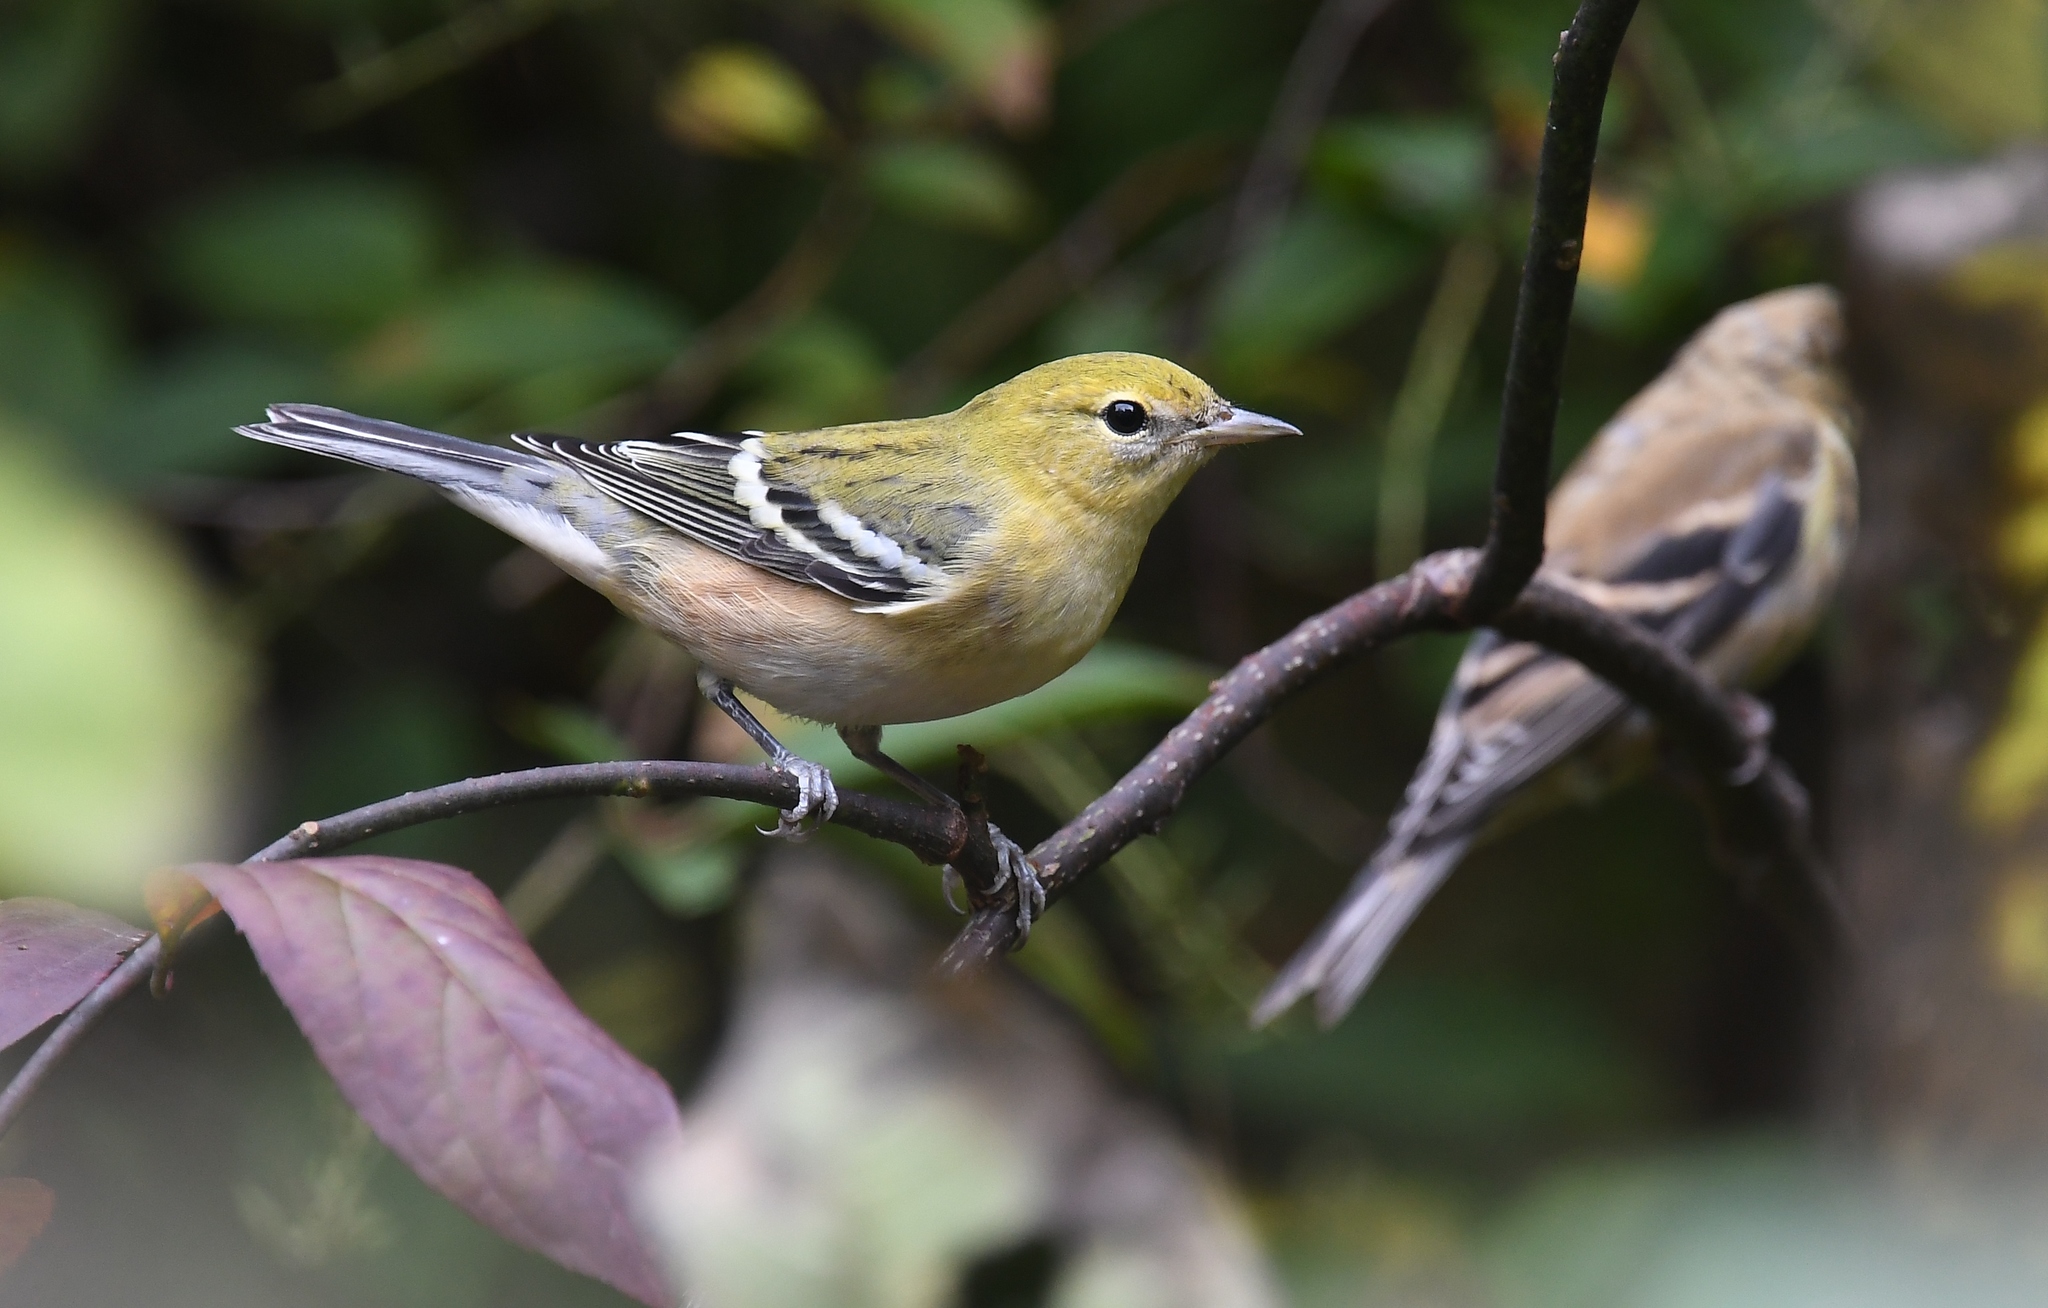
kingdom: Animalia
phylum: Chordata
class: Aves
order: Passeriformes
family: Parulidae
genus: Setophaga
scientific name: Setophaga castanea
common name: Bay-breasted warbler
